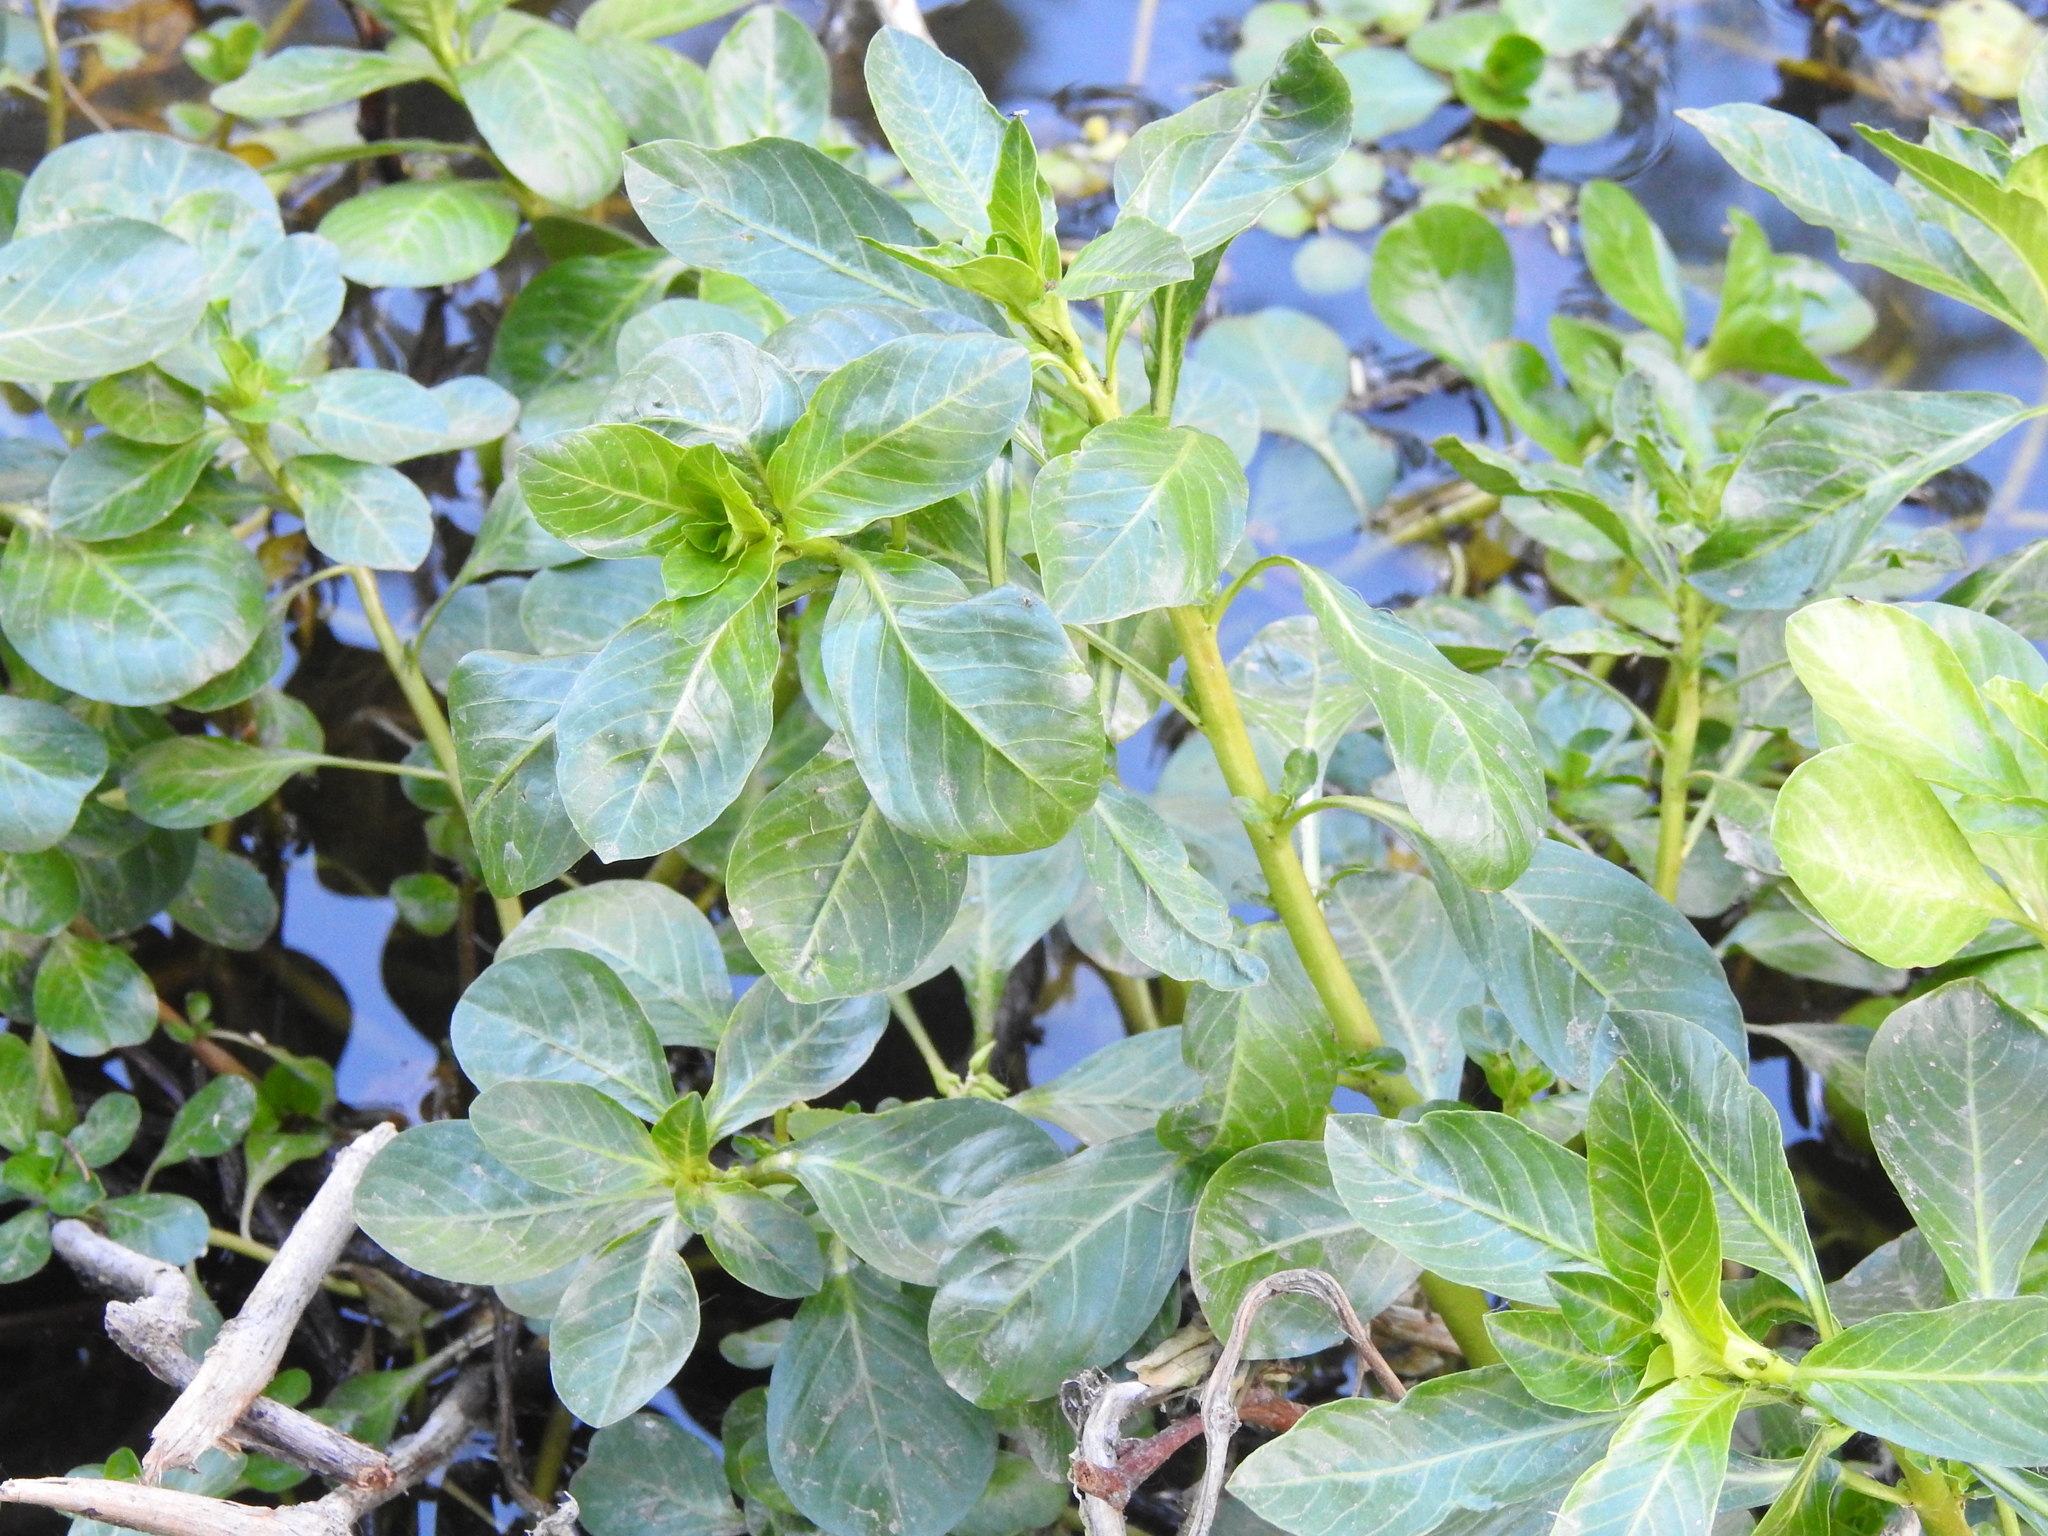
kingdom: Plantae
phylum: Tracheophyta
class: Magnoliopsida
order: Myrtales
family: Onagraceae
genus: Ludwigia
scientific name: Ludwigia peploides
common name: Floating primrose-willow
